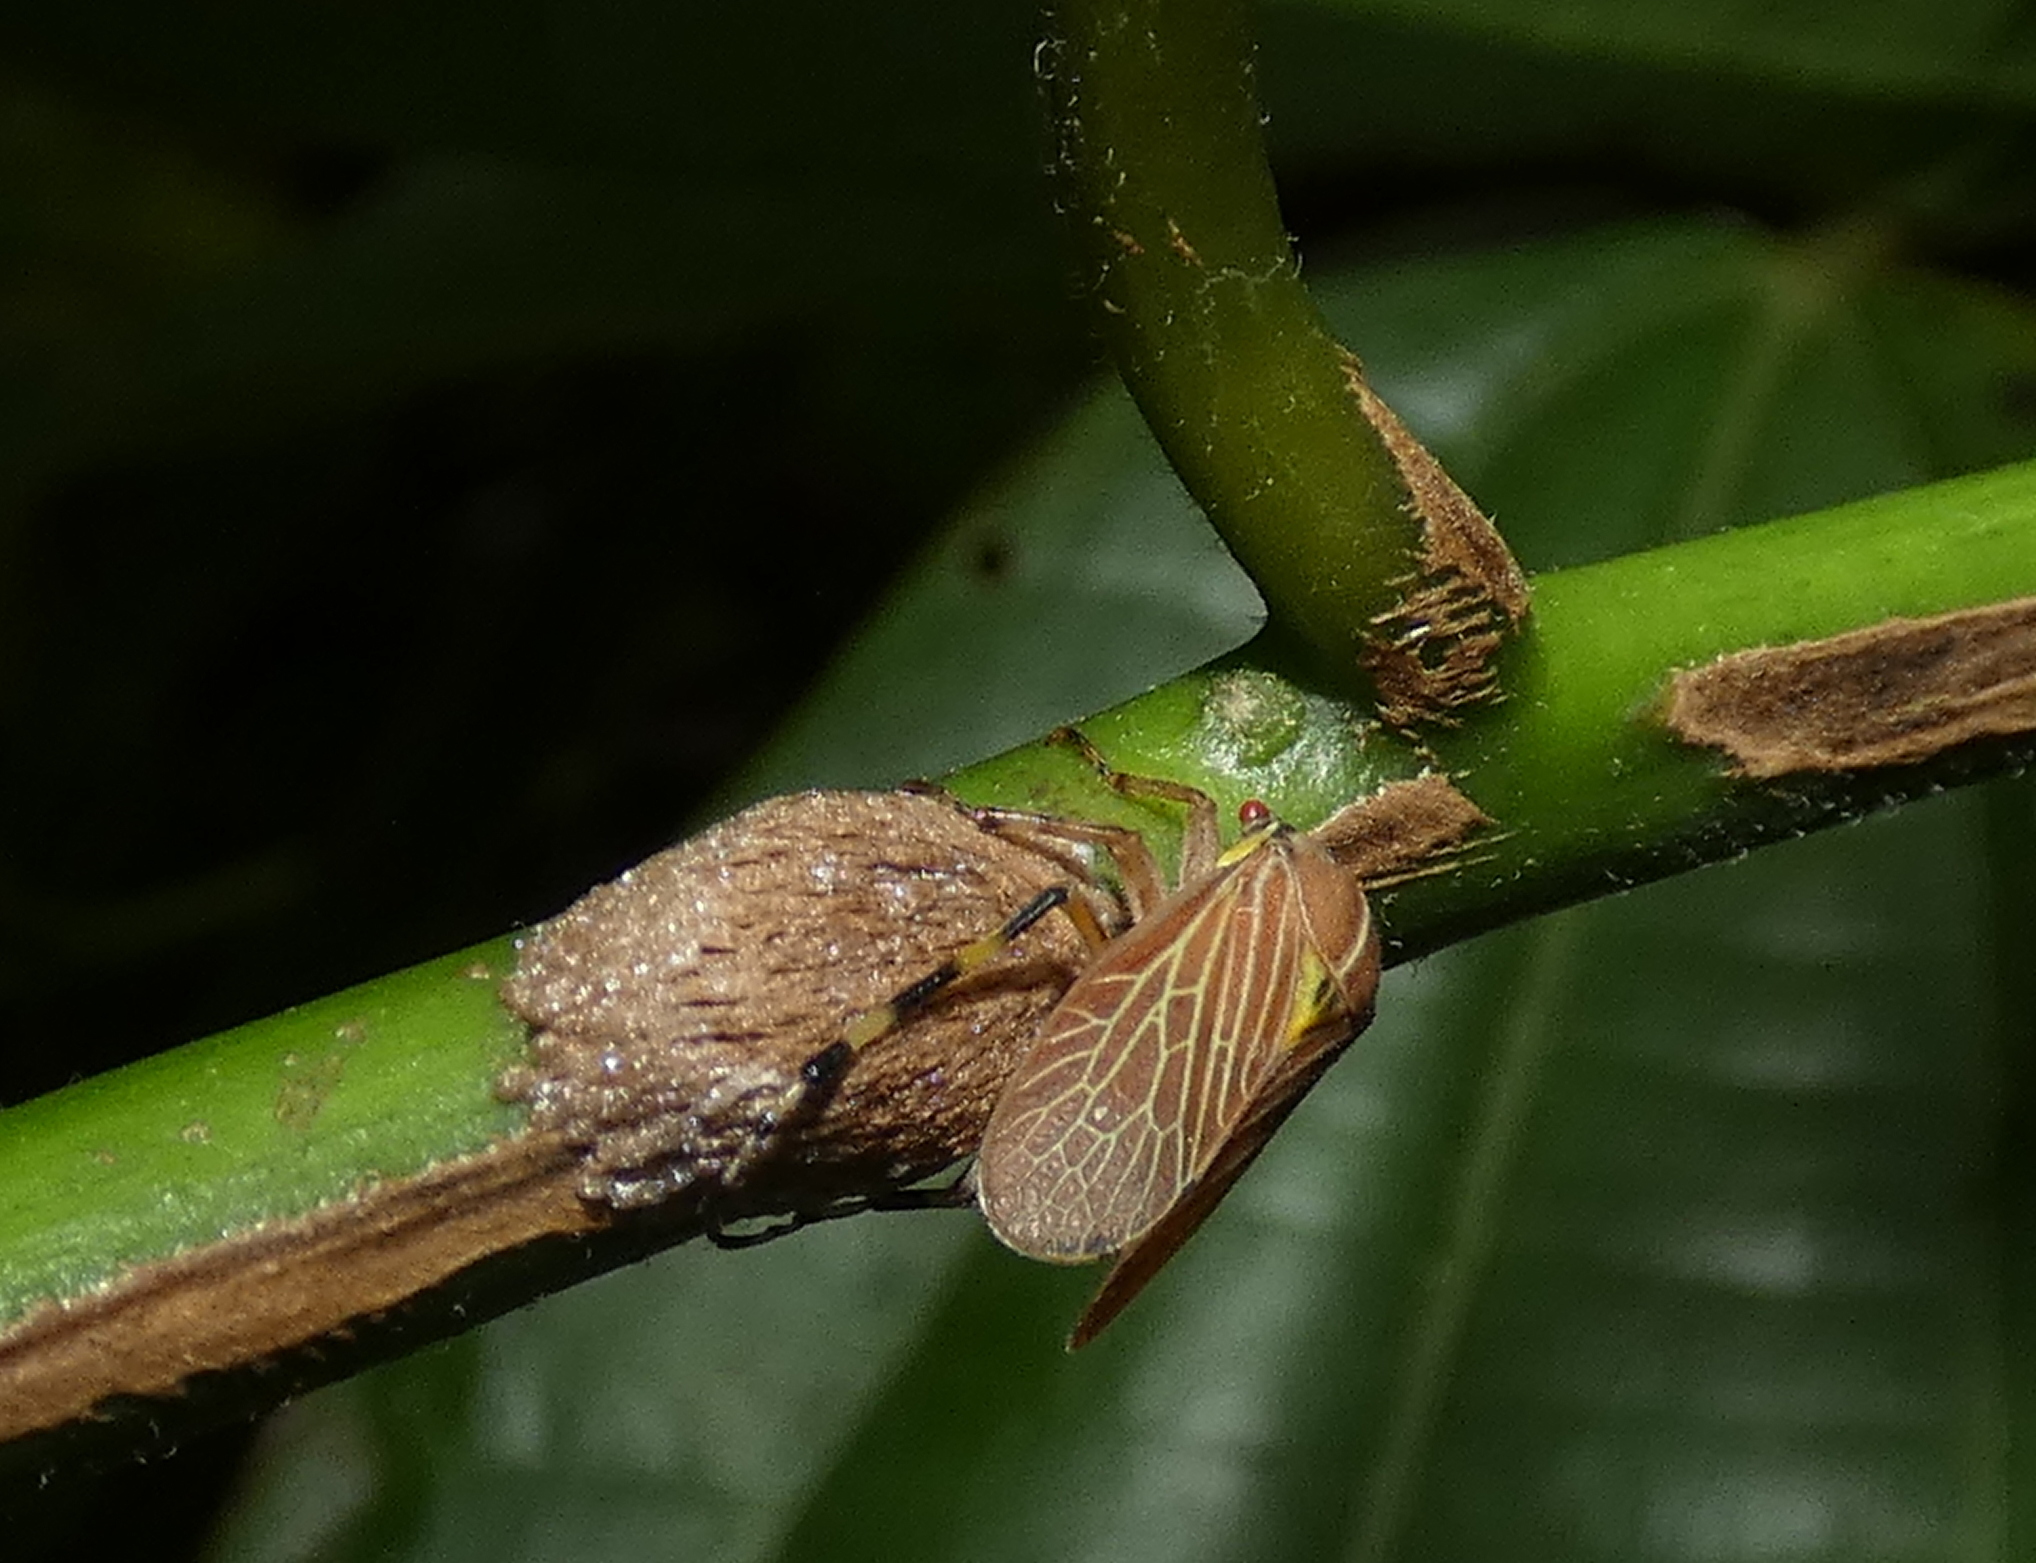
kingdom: Animalia
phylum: Arthropoda
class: Insecta
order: Hemiptera
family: Aetalionidae
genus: Aetalion
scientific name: Aetalion reticulatum
